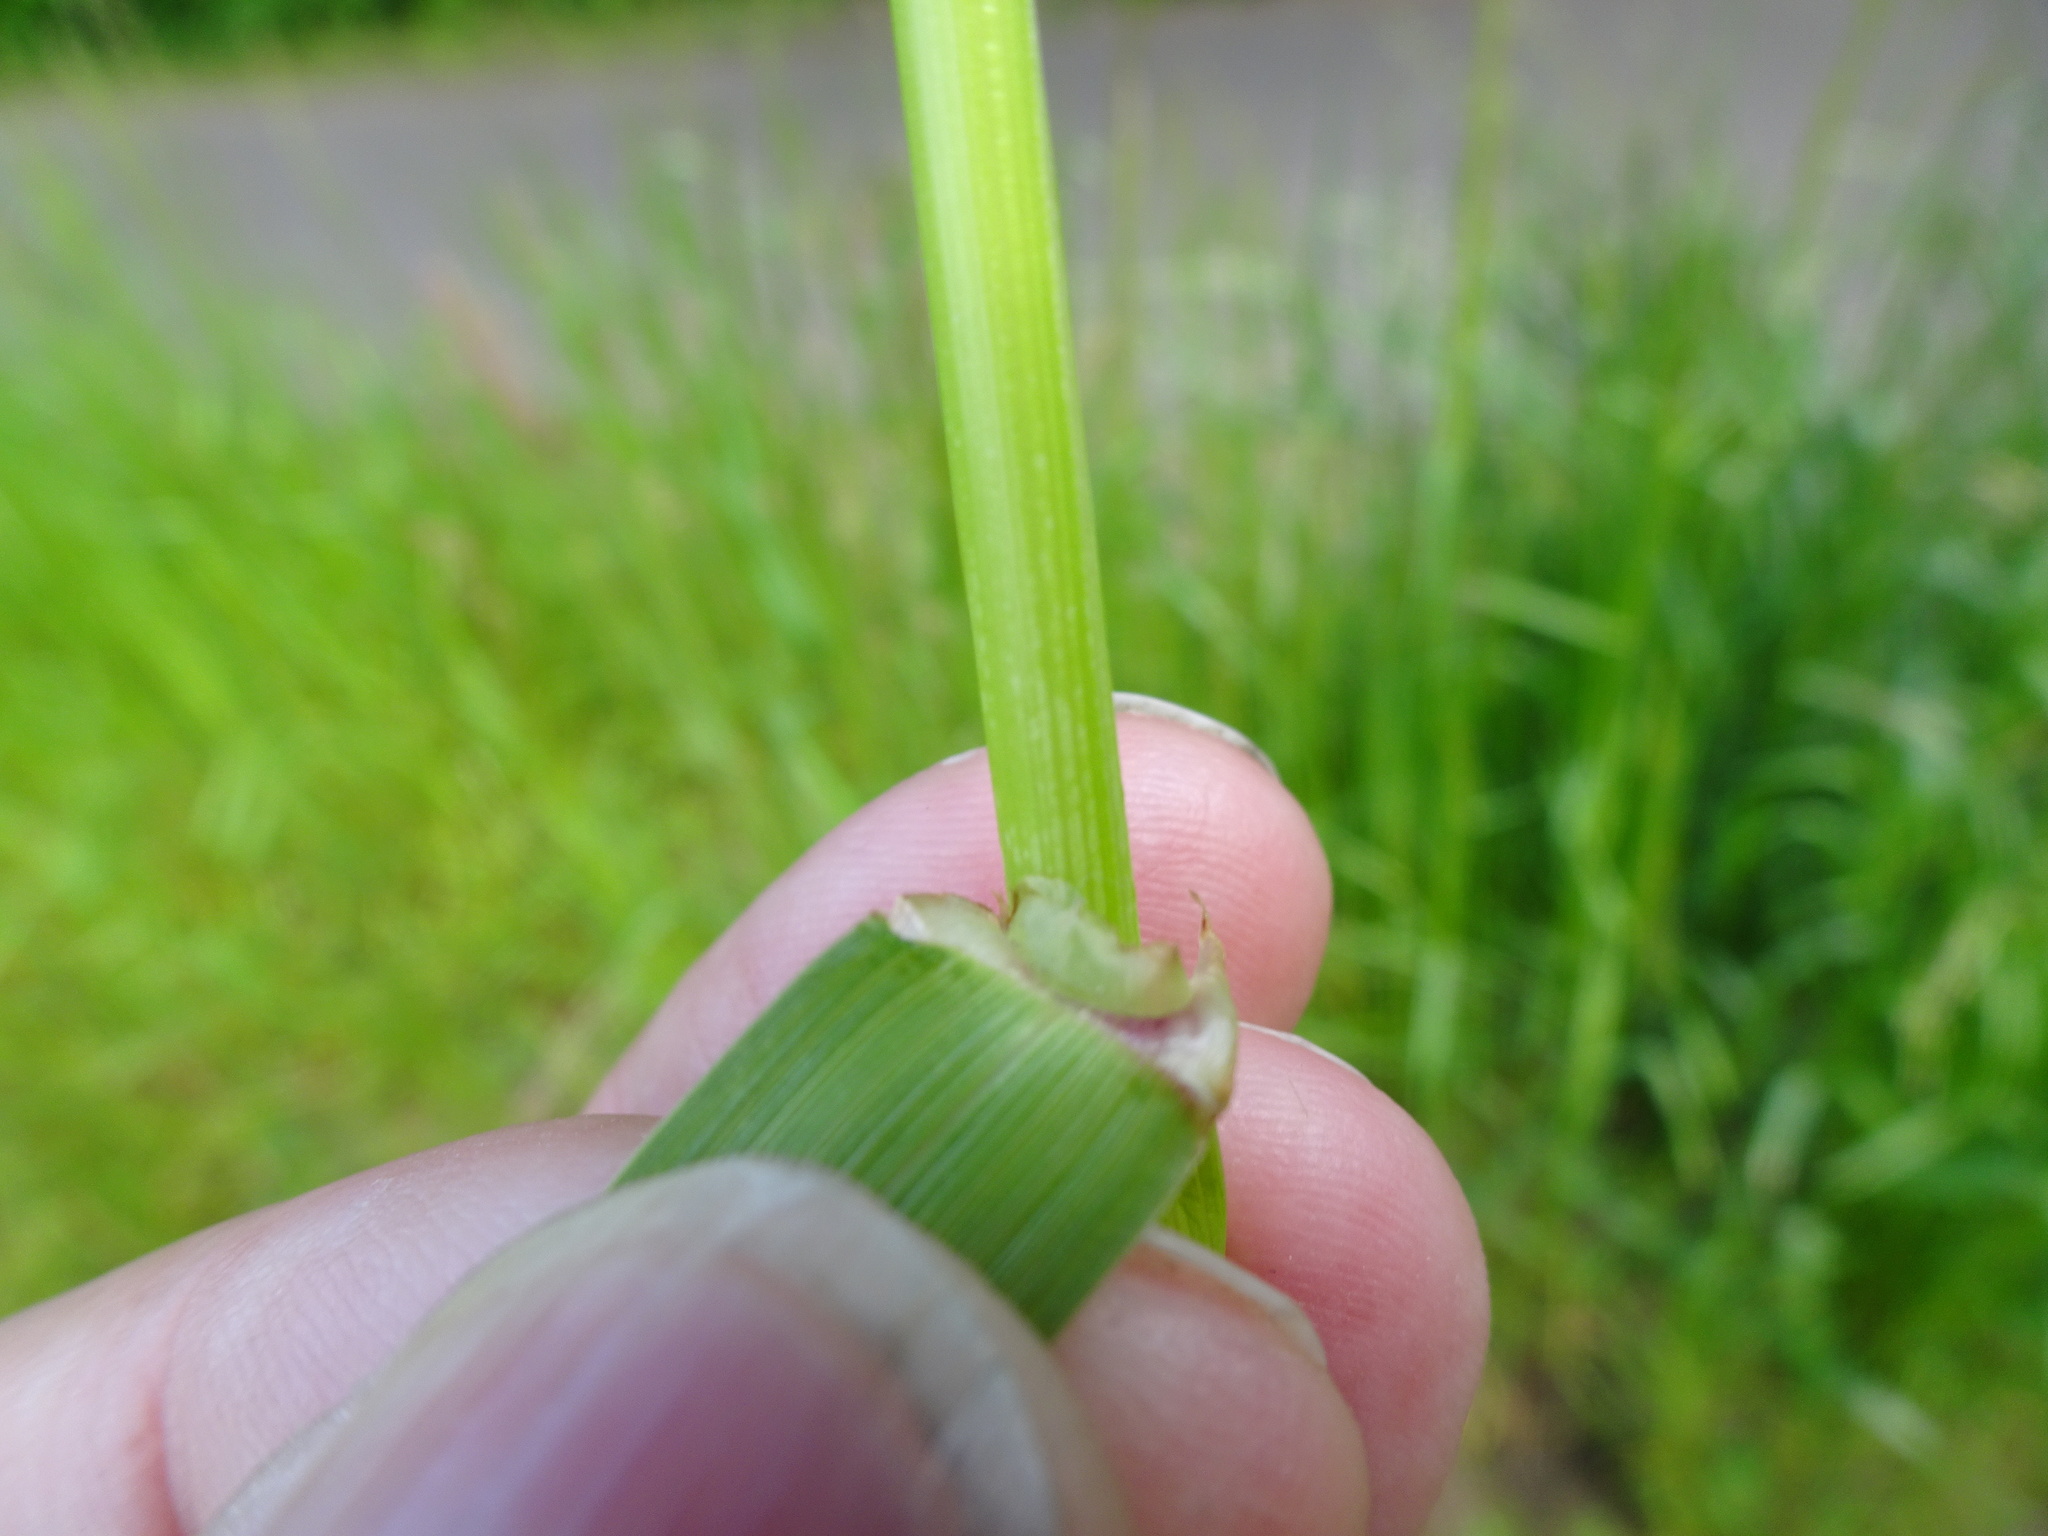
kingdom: Plantae
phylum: Tracheophyta
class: Liliopsida
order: Poales
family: Poaceae
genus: Lolium
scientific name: Lolium multiflorum
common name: Annual ryegrass
